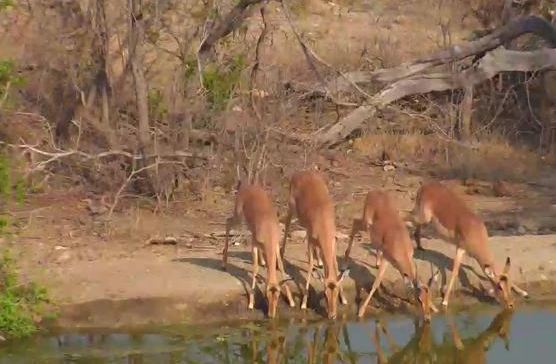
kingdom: Animalia
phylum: Chordata
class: Mammalia
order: Artiodactyla
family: Bovidae
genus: Aepyceros
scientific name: Aepyceros melampus
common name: Impala
